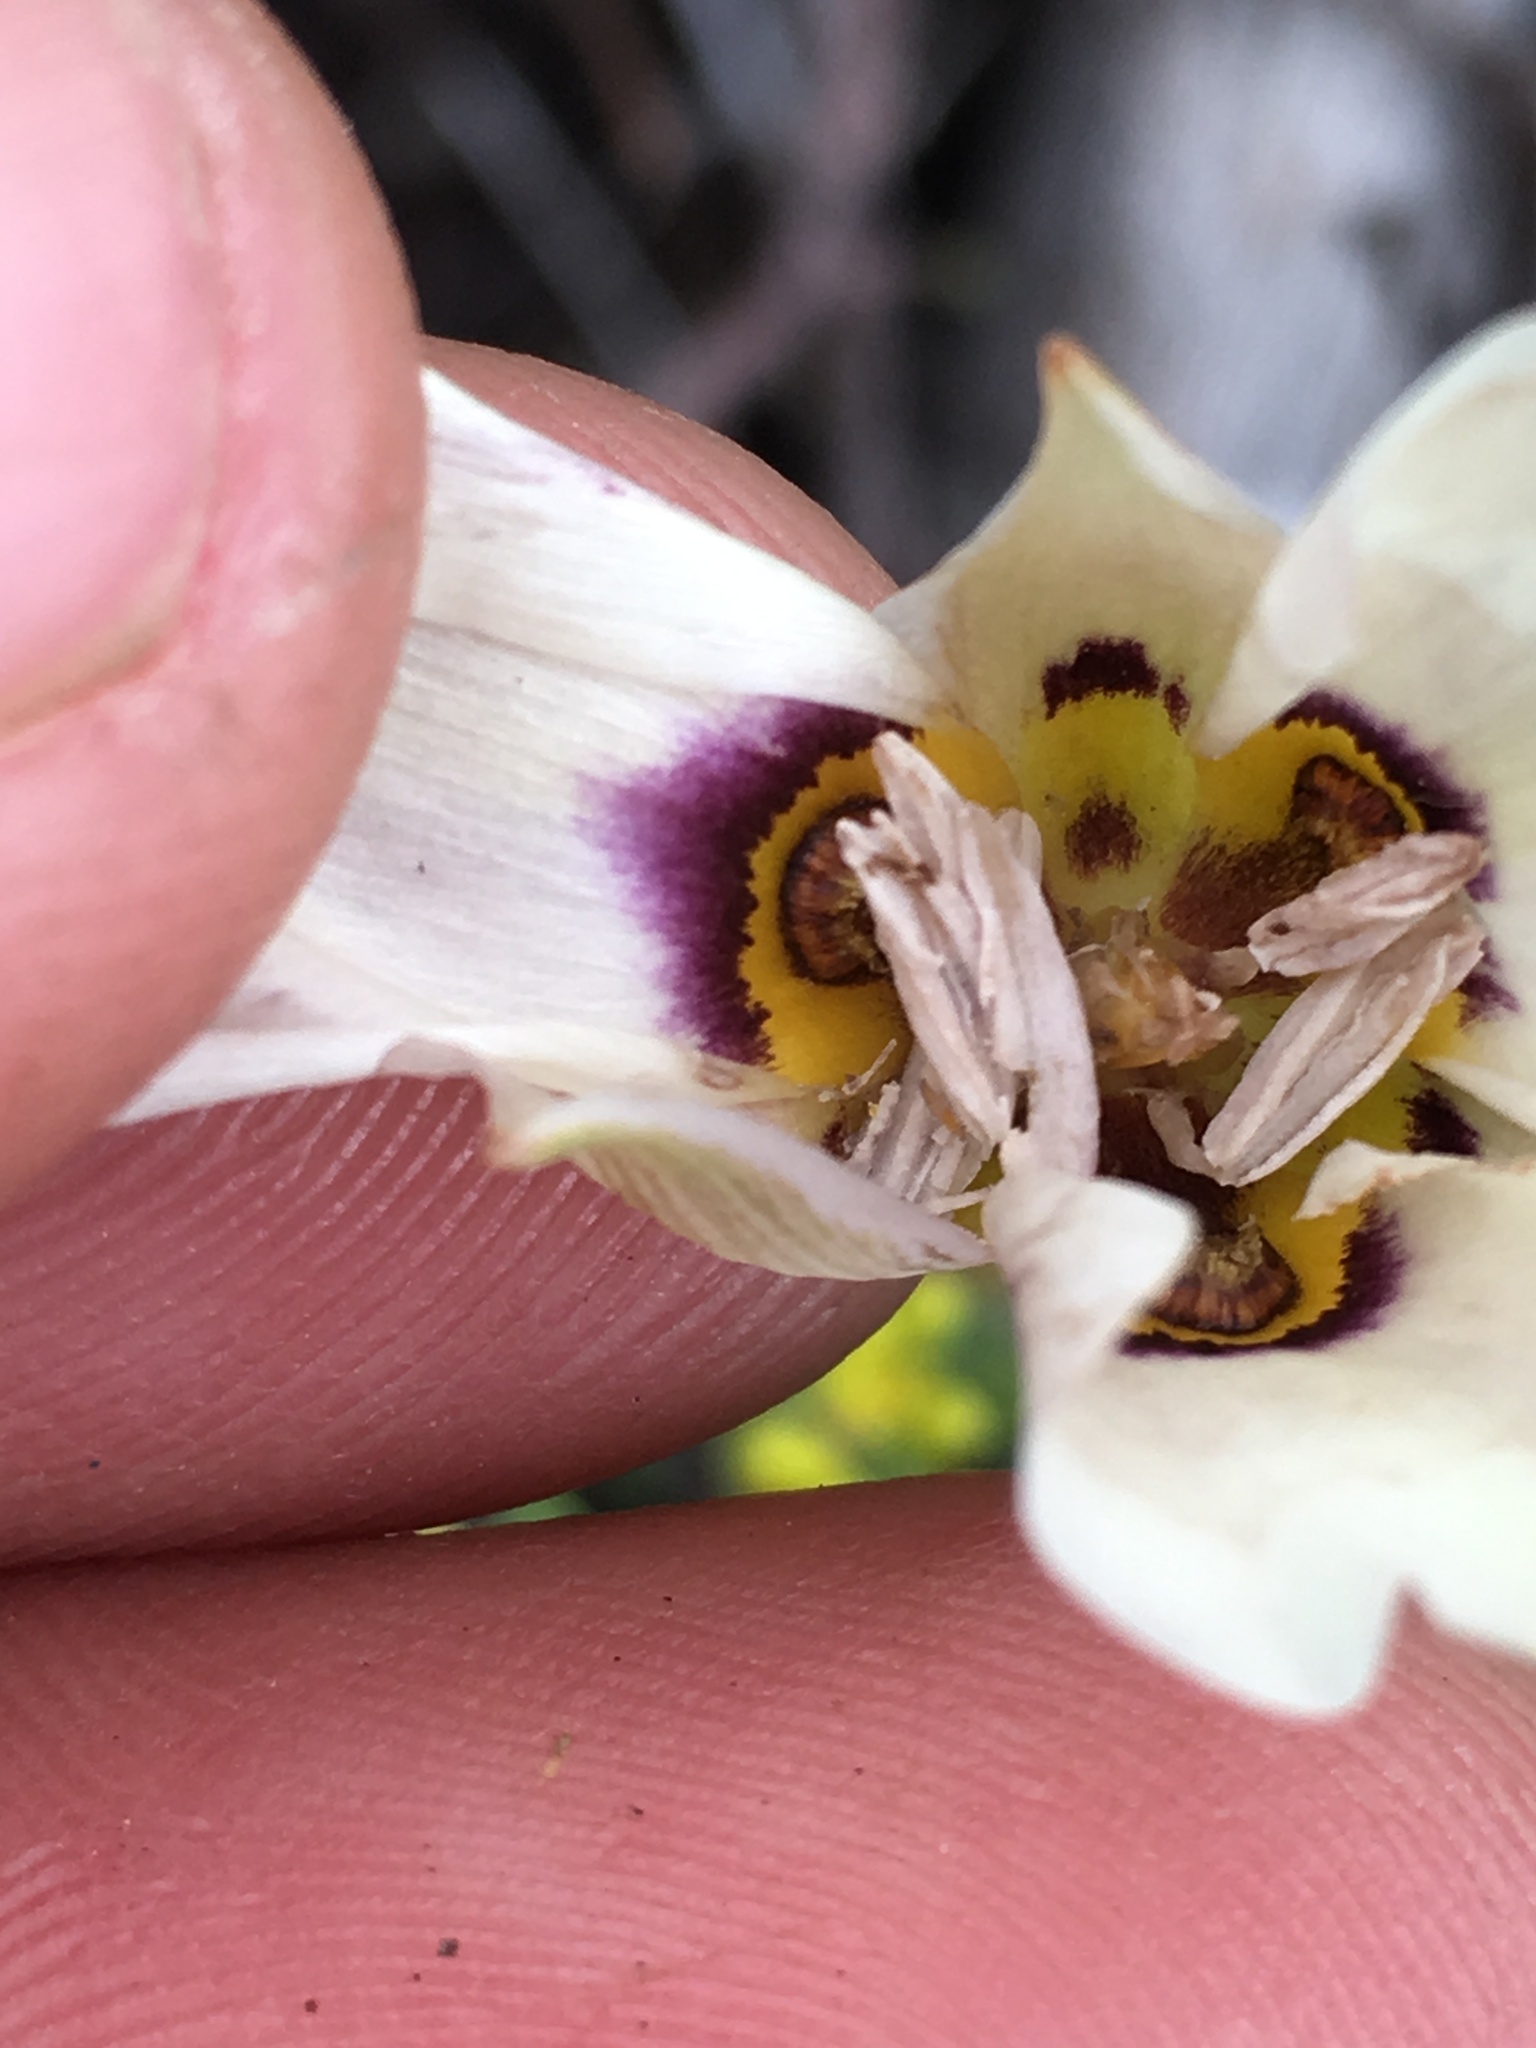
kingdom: Plantae
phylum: Tracheophyta
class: Liliopsida
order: Liliales
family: Liliaceae
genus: Calochortus
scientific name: Calochortus bruneaunis
